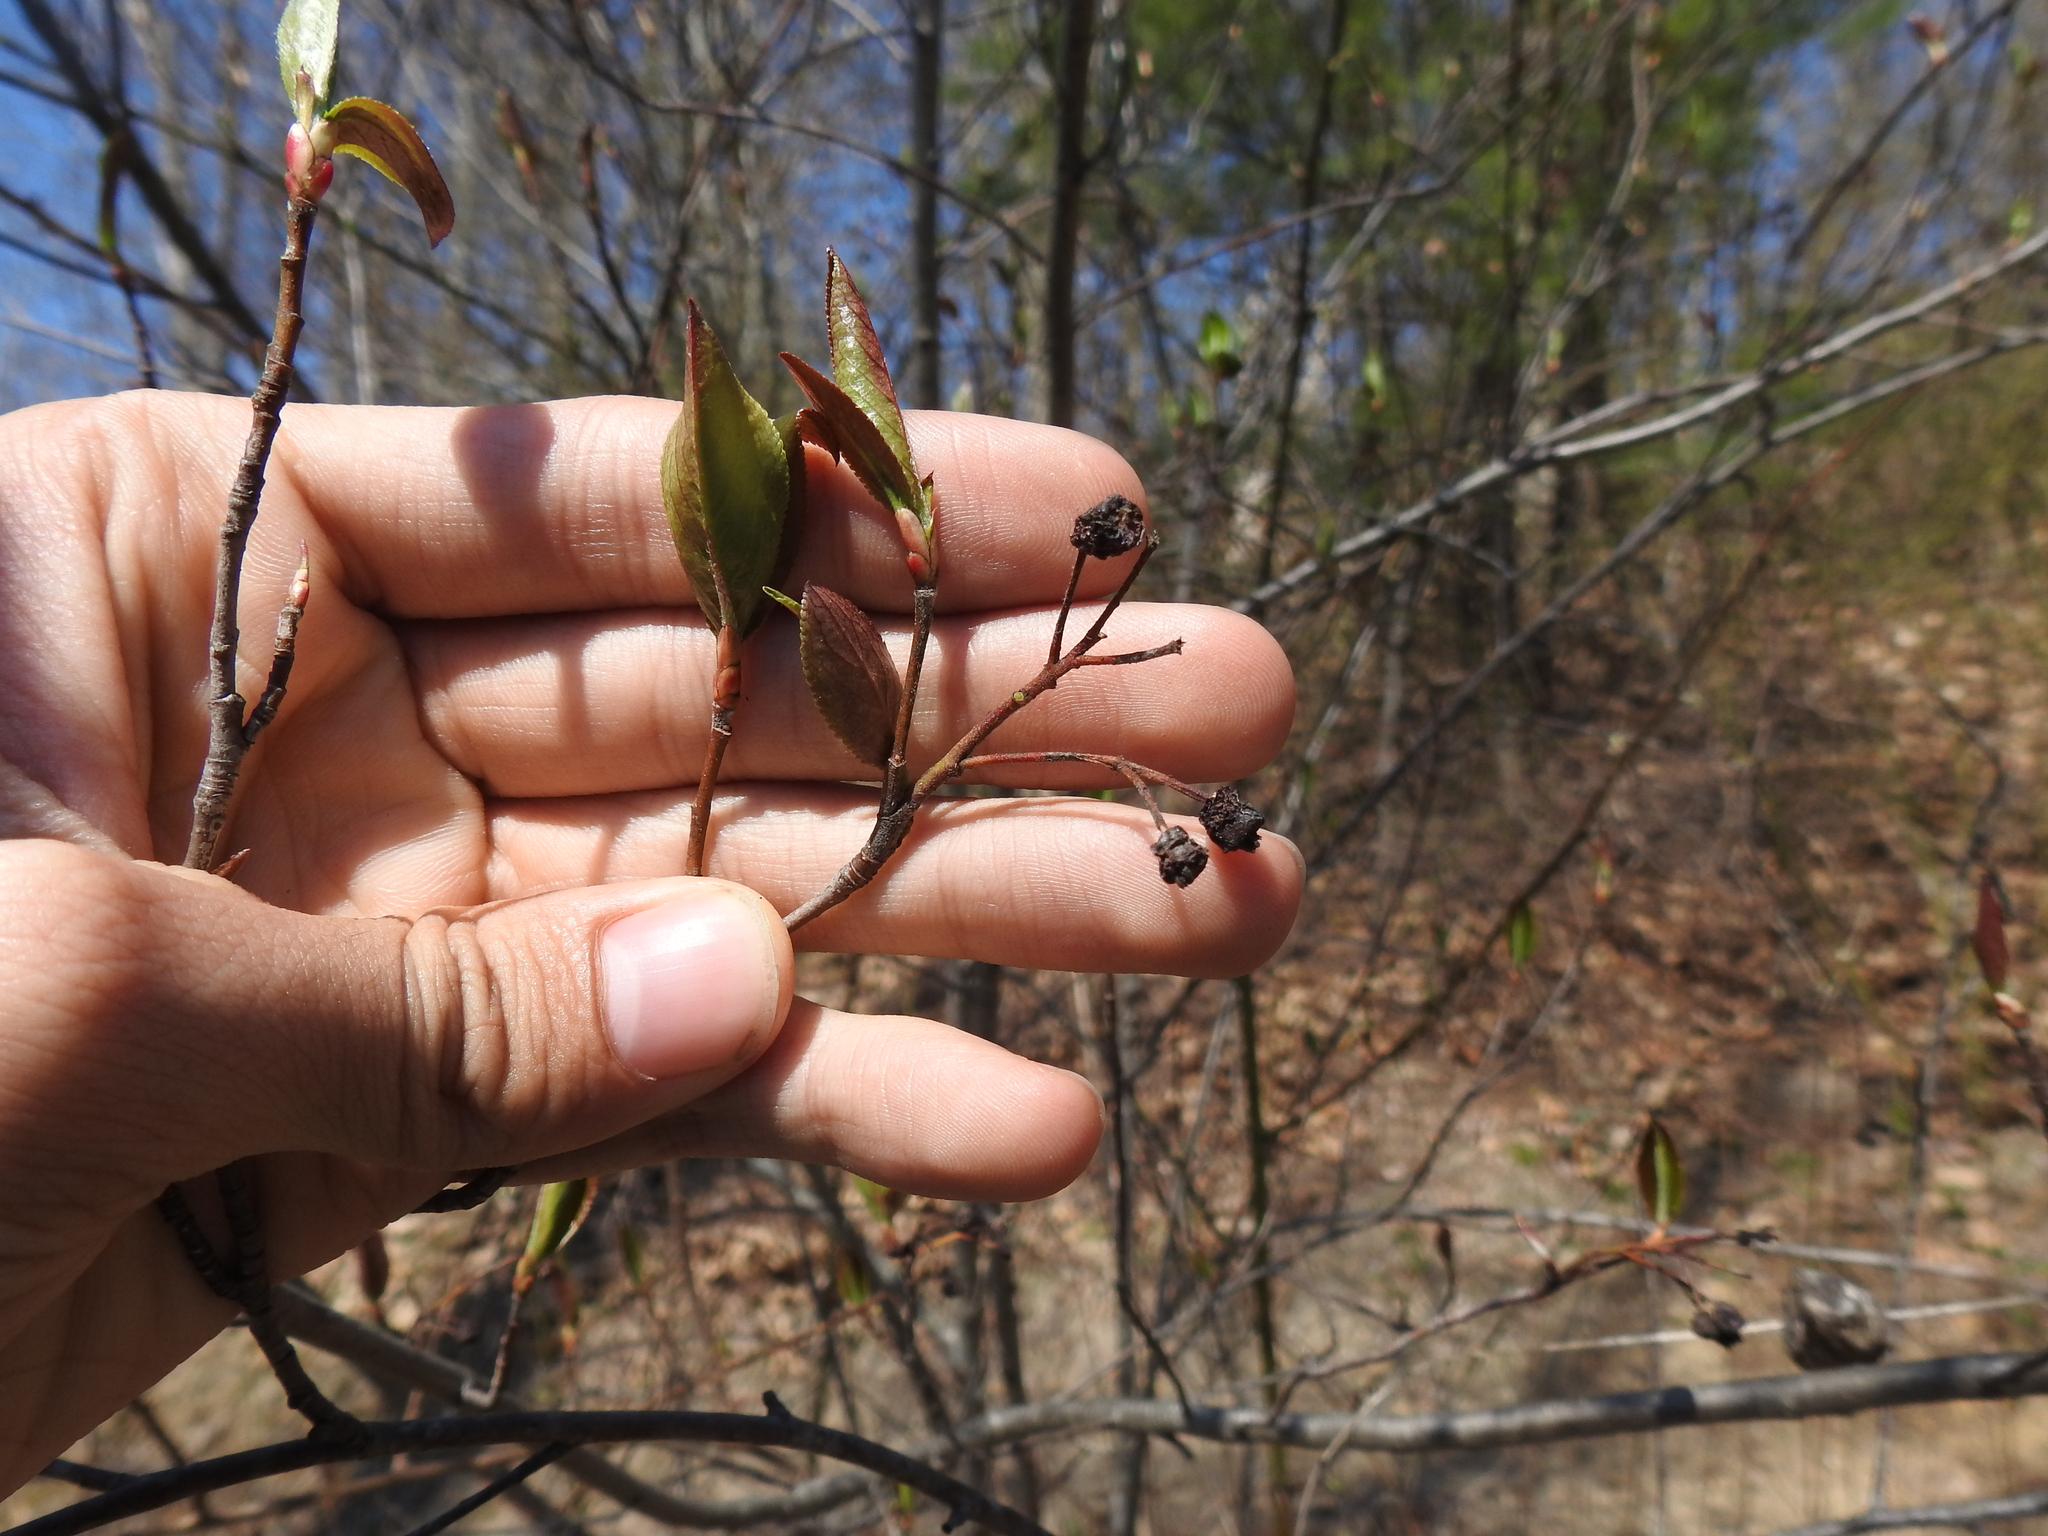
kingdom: Plantae
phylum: Tracheophyta
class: Magnoliopsida
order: Rosales
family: Rosaceae
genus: Aronia
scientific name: Aronia melanocarpa
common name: Black chokeberry
